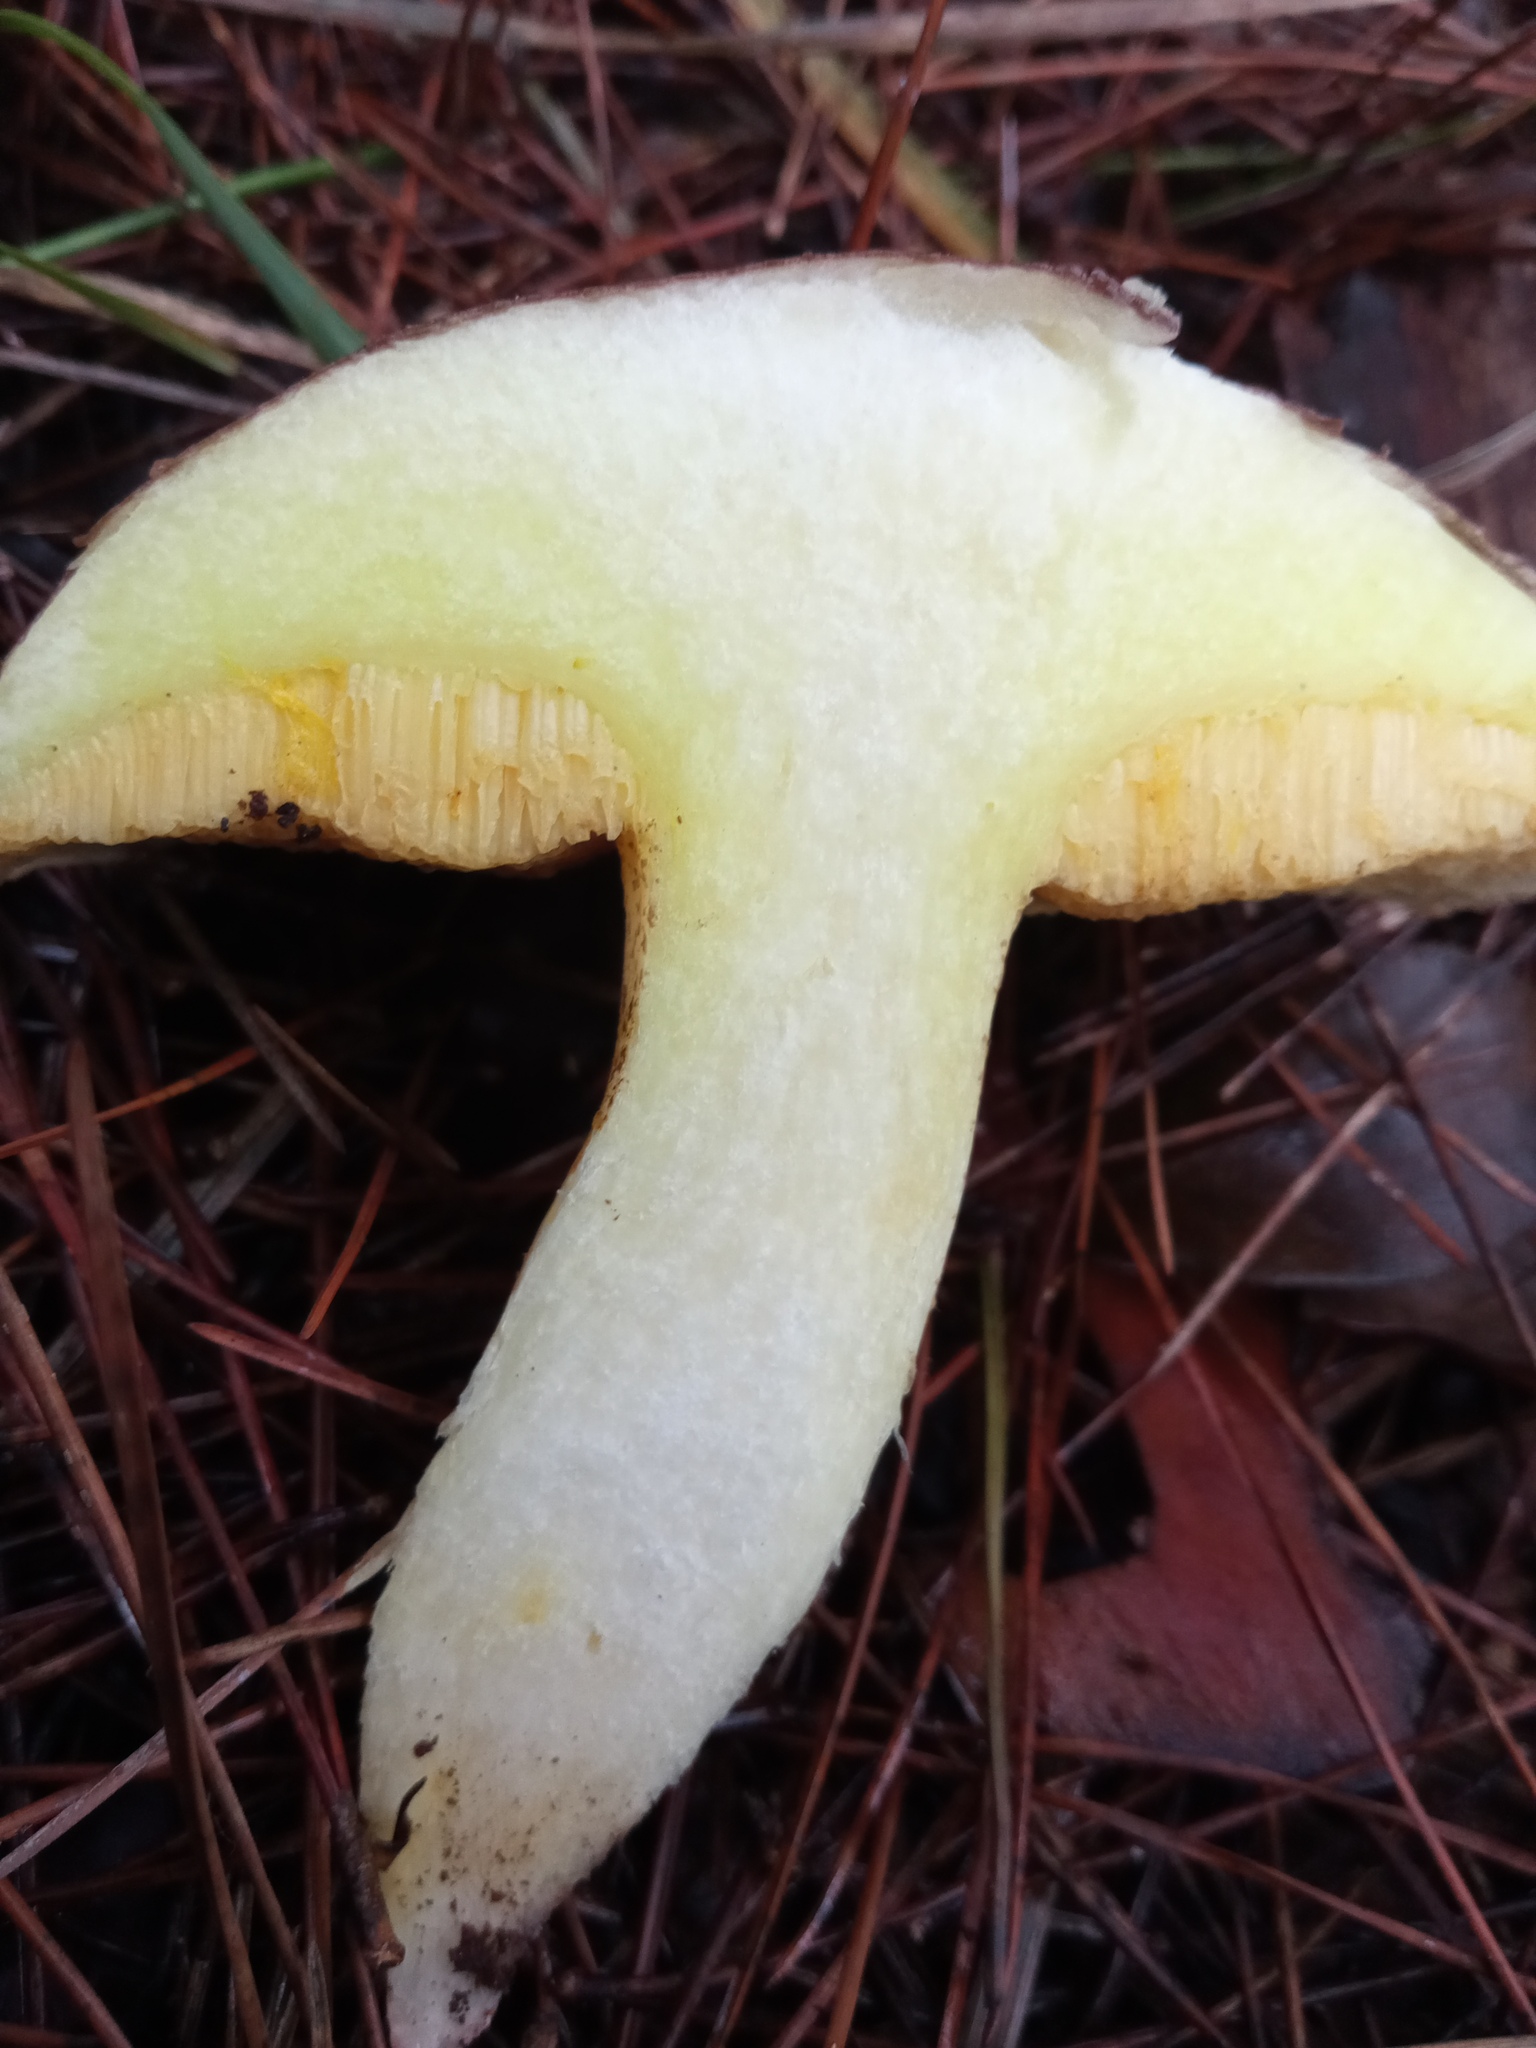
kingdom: Fungi
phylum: Basidiomycota
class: Agaricomycetes
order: Boletales
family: Suillaceae
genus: Suillus
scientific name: Suillus collinitus
